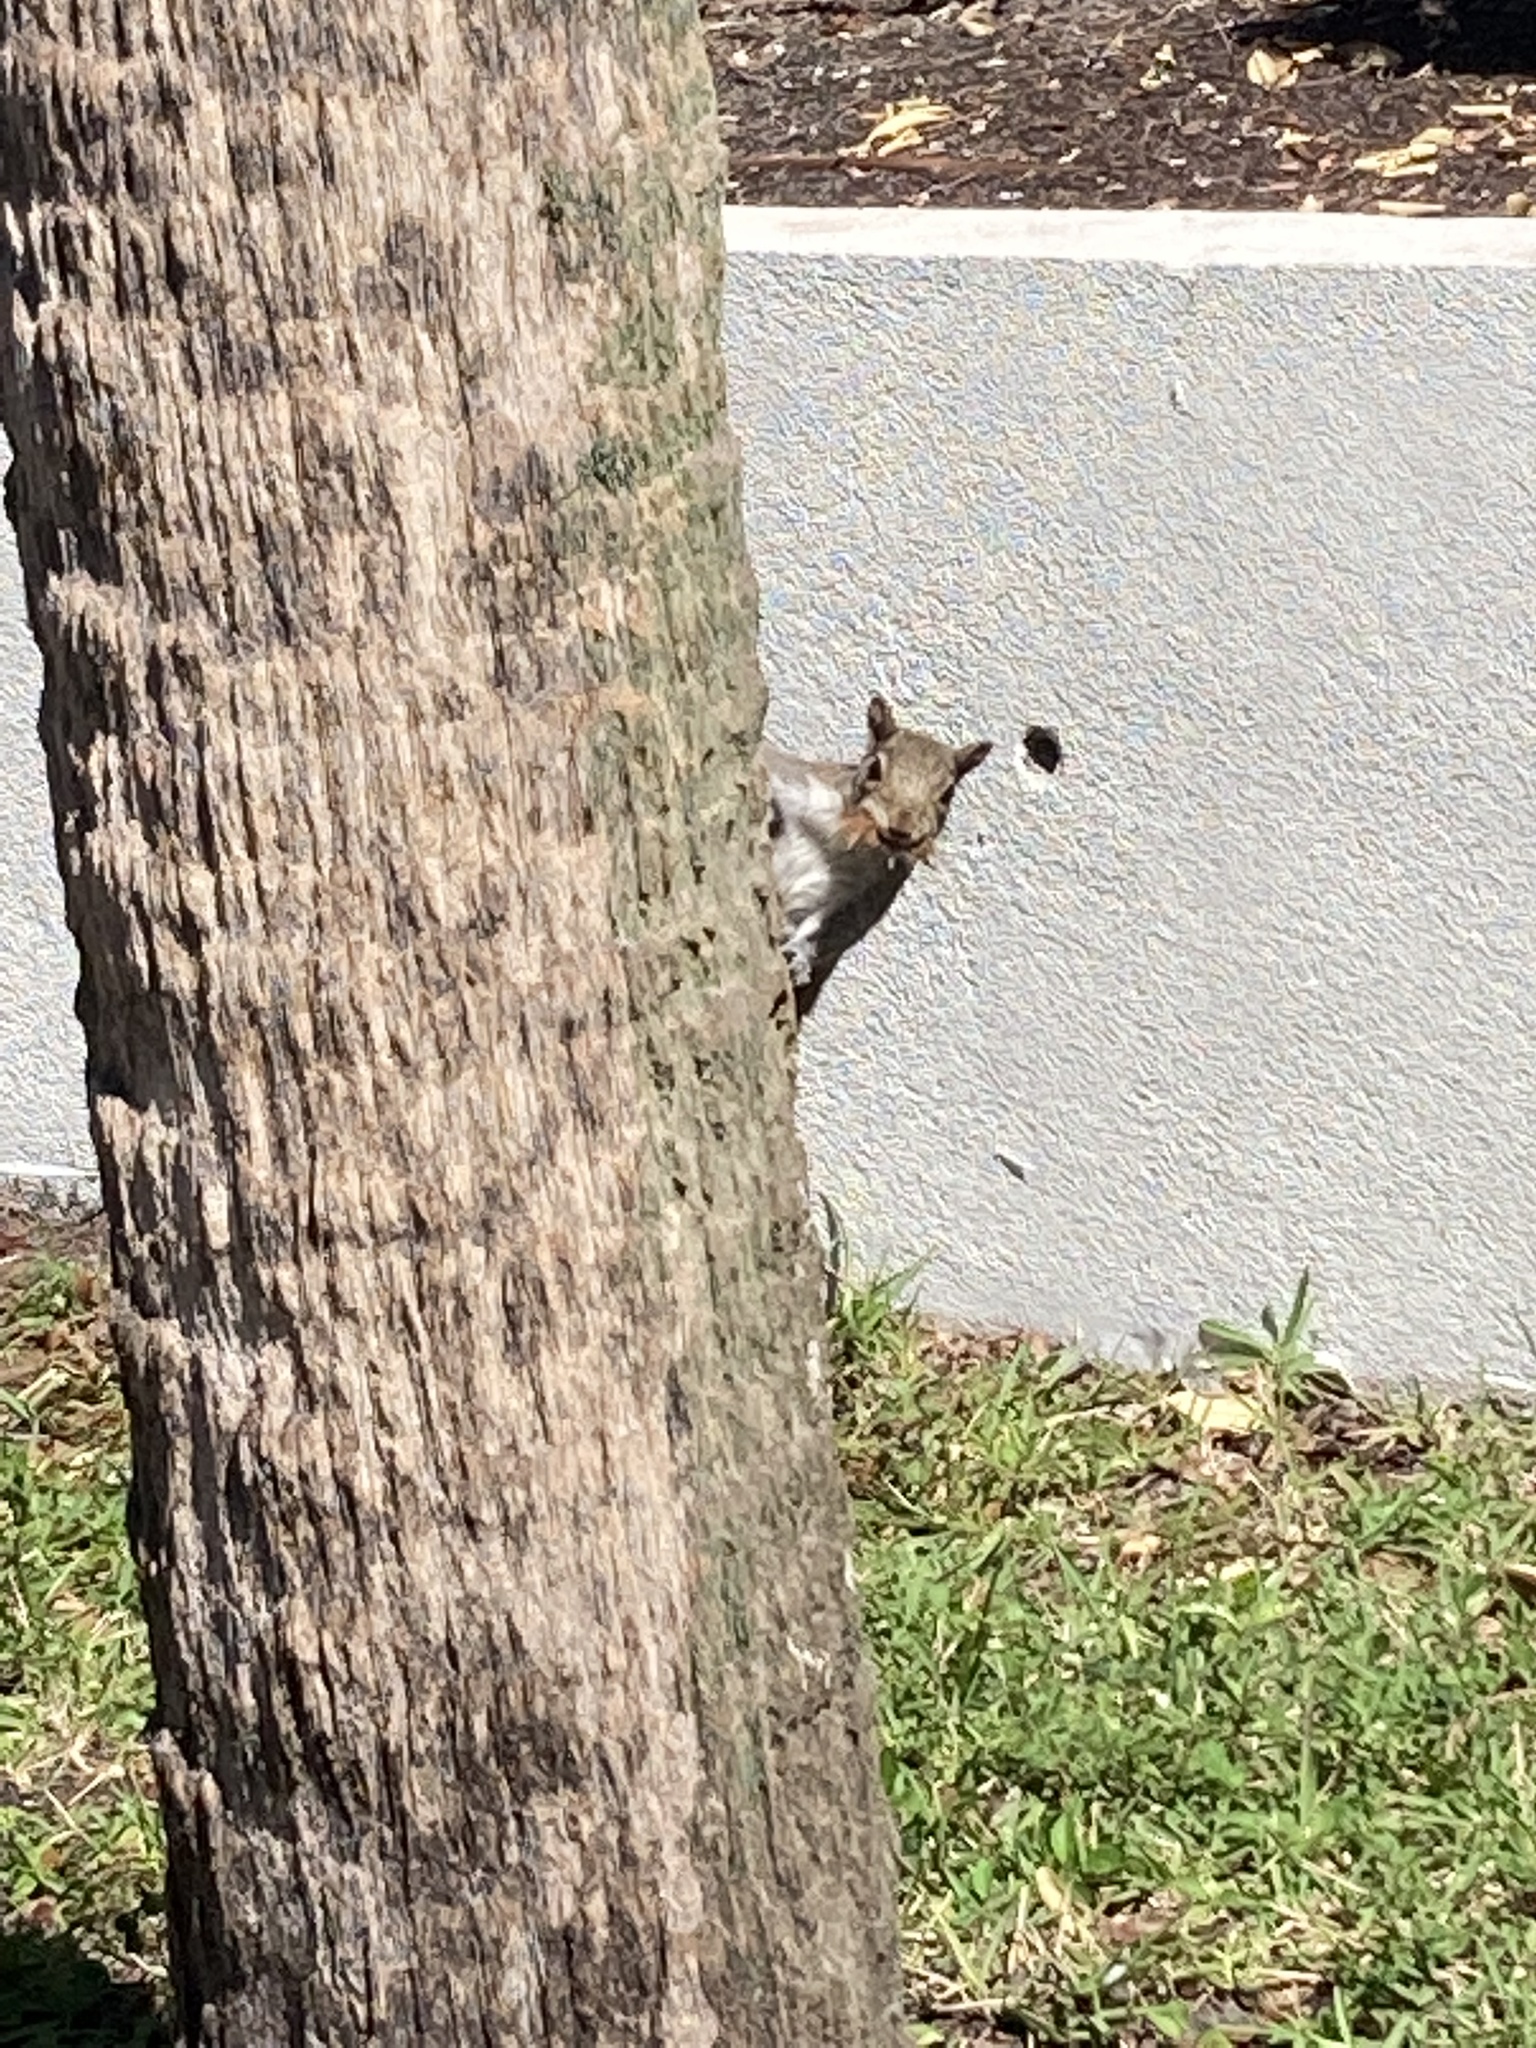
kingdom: Animalia
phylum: Chordata
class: Mammalia
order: Rodentia
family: Sciuridae
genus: Sciurus
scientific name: Sciurus carolinensis
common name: Eastern gray squirrel
